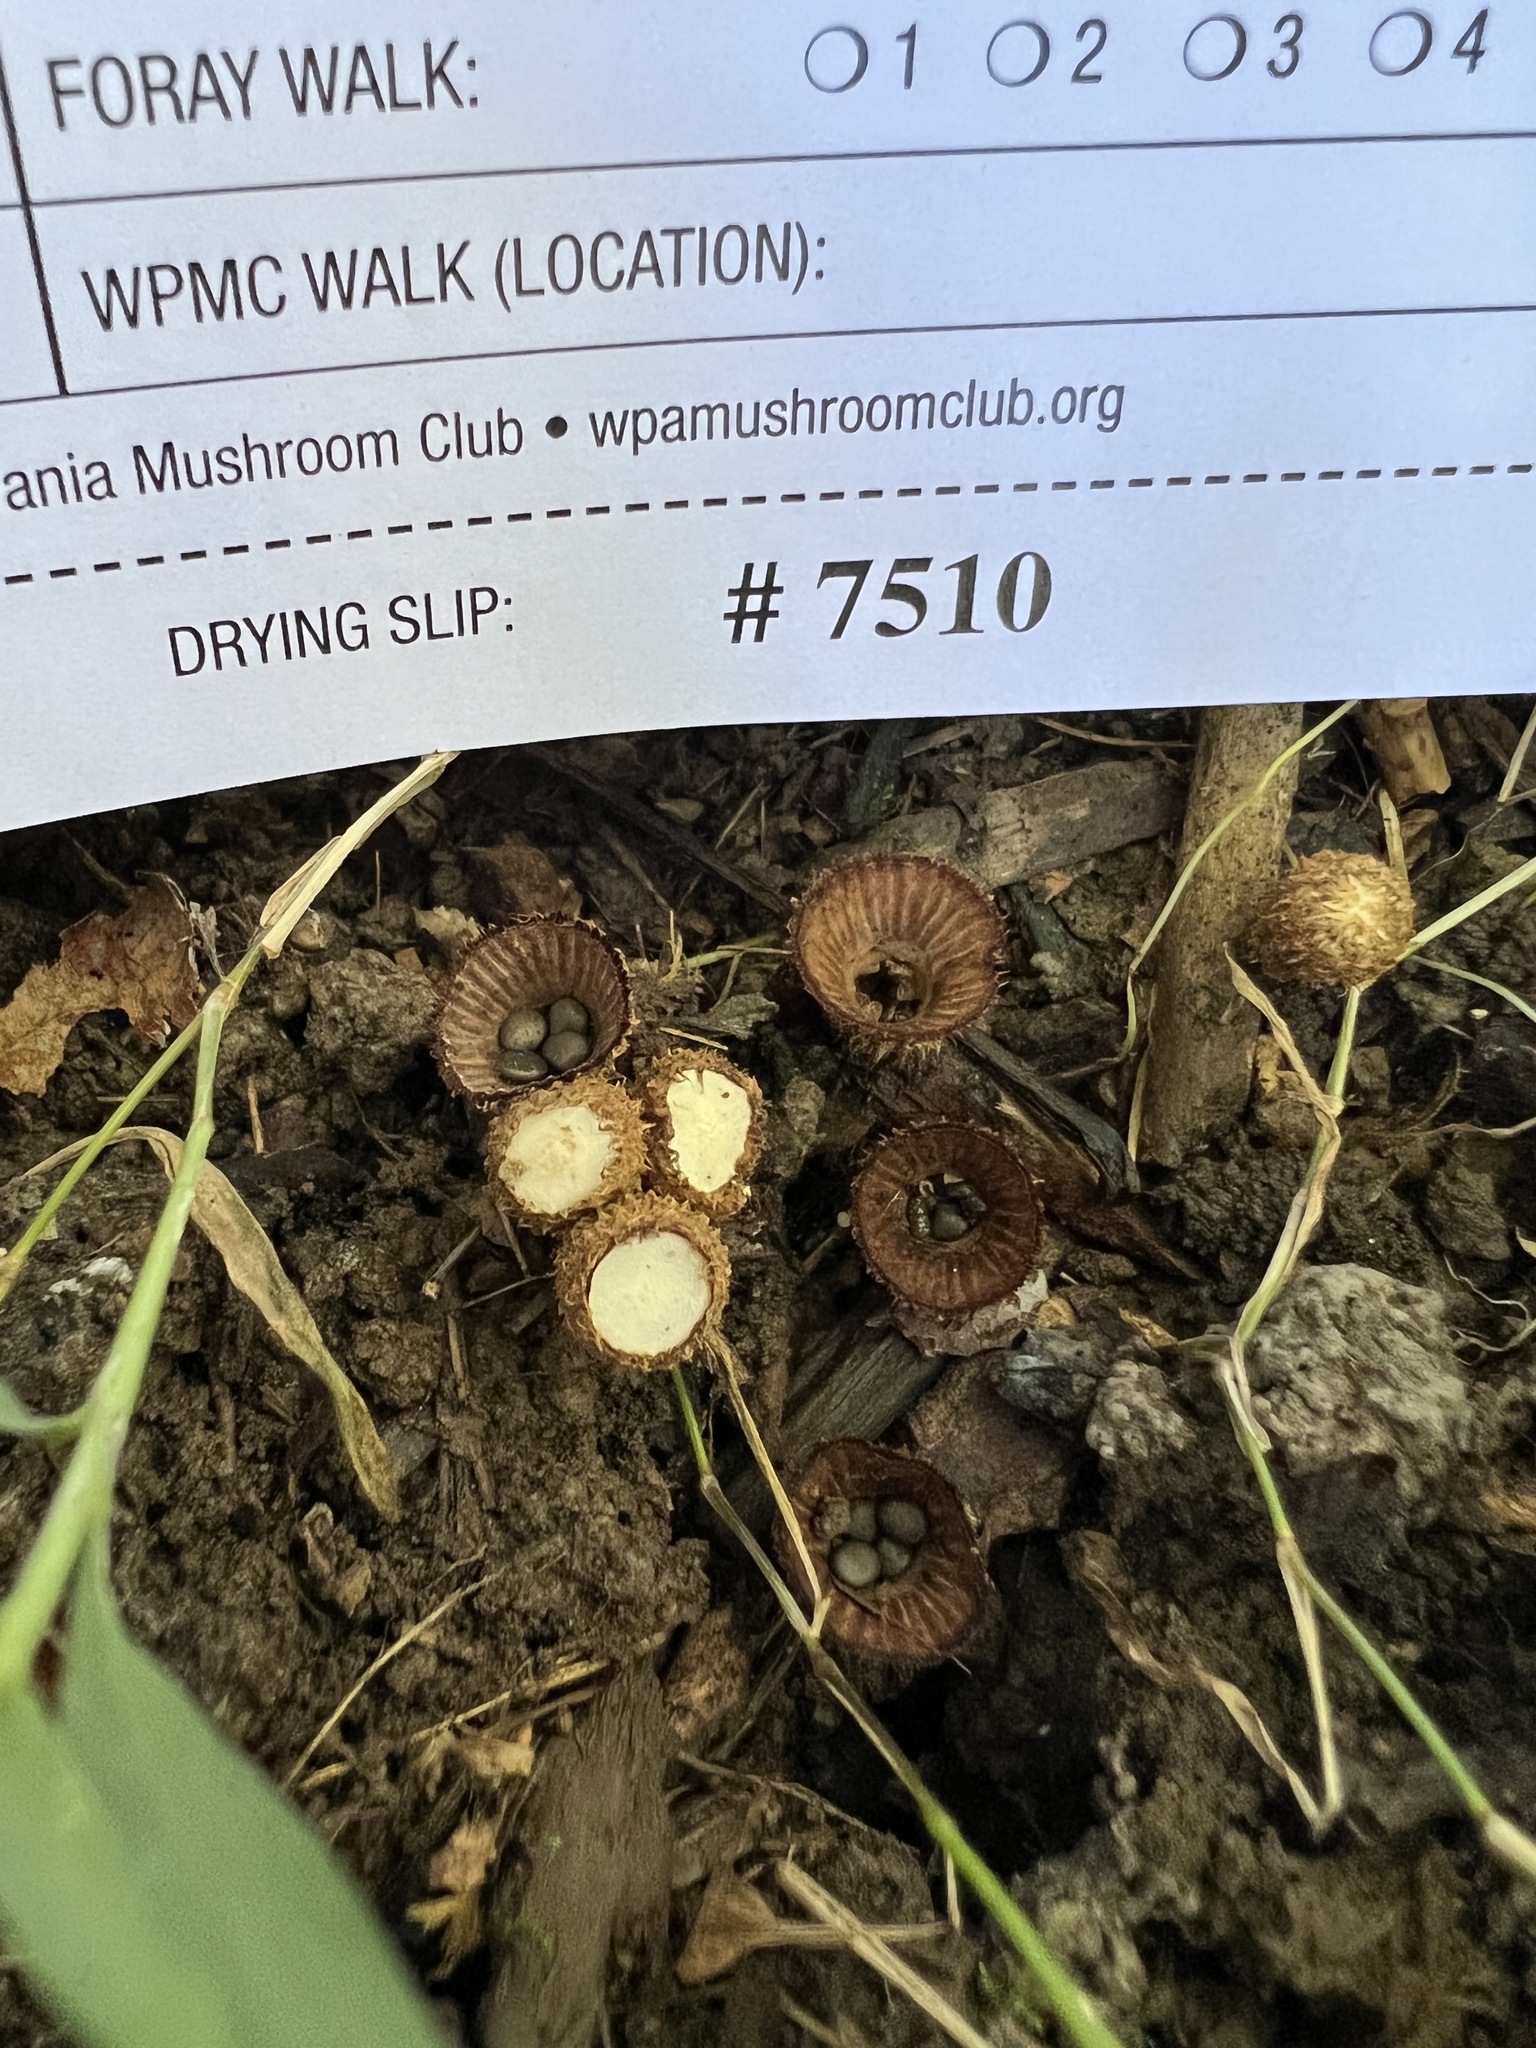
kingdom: Fungi
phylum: Basidiomycota
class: Agaricomycetes
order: Agaricales
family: Agaricaceae
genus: Cyathus
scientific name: Cyathus striatus
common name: Fluted bird's nest
